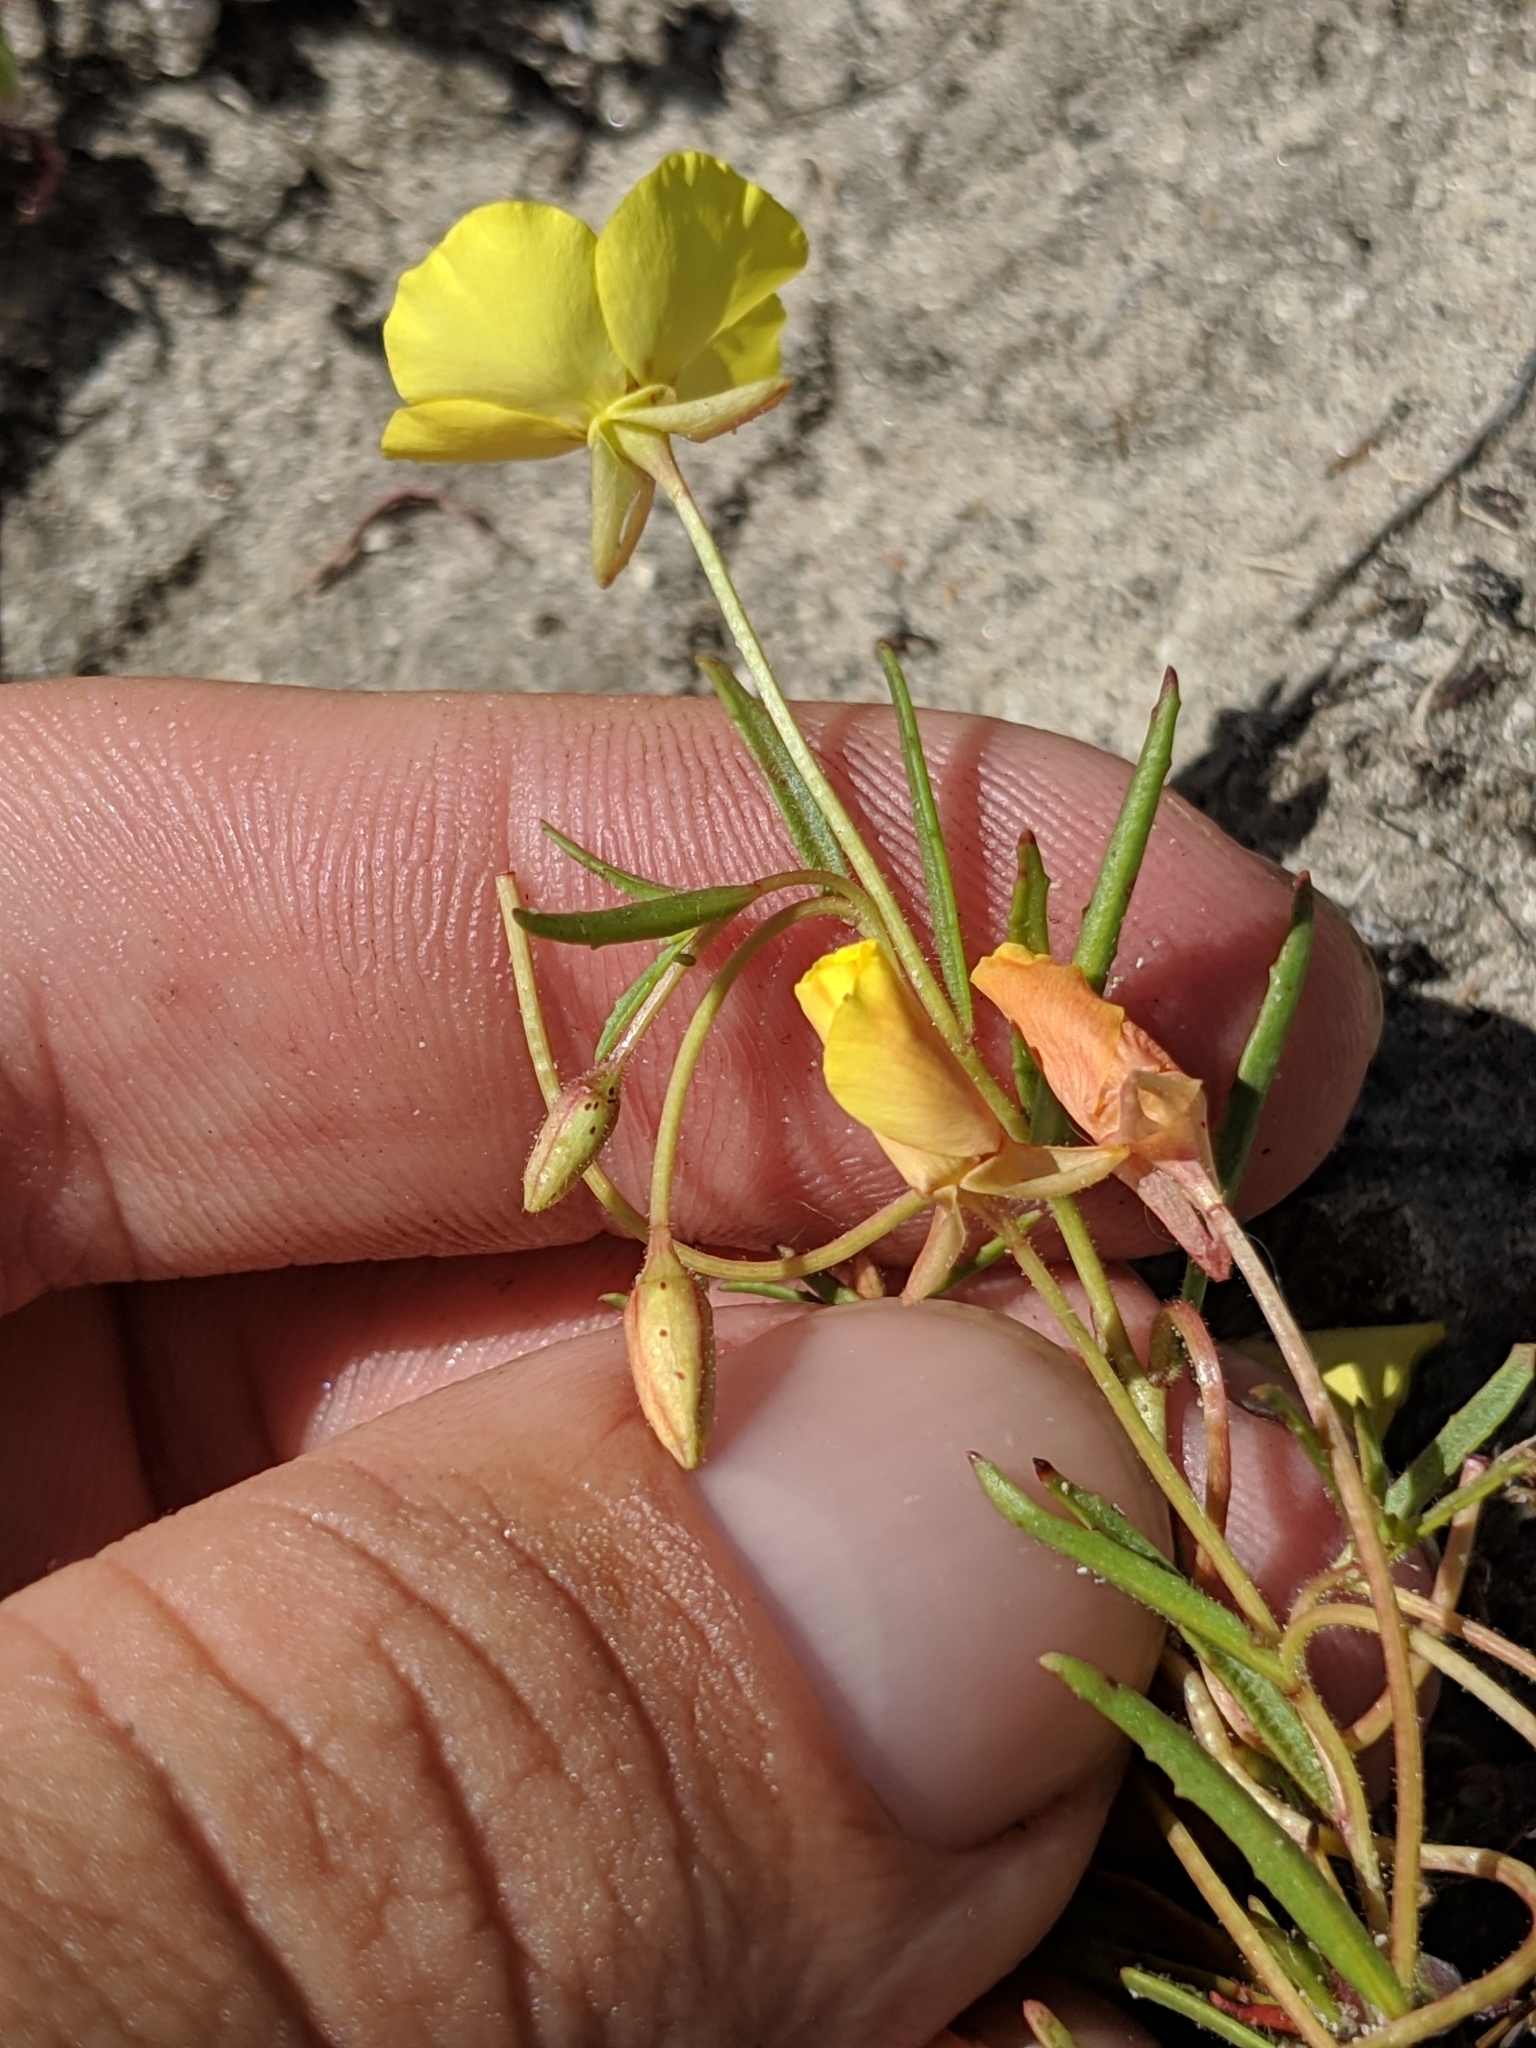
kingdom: Plantae
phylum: Tracheophyta
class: Magnoliopsida
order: Myrtales
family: Onagraceae
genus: Camissonia
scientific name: Camissonia campestris
